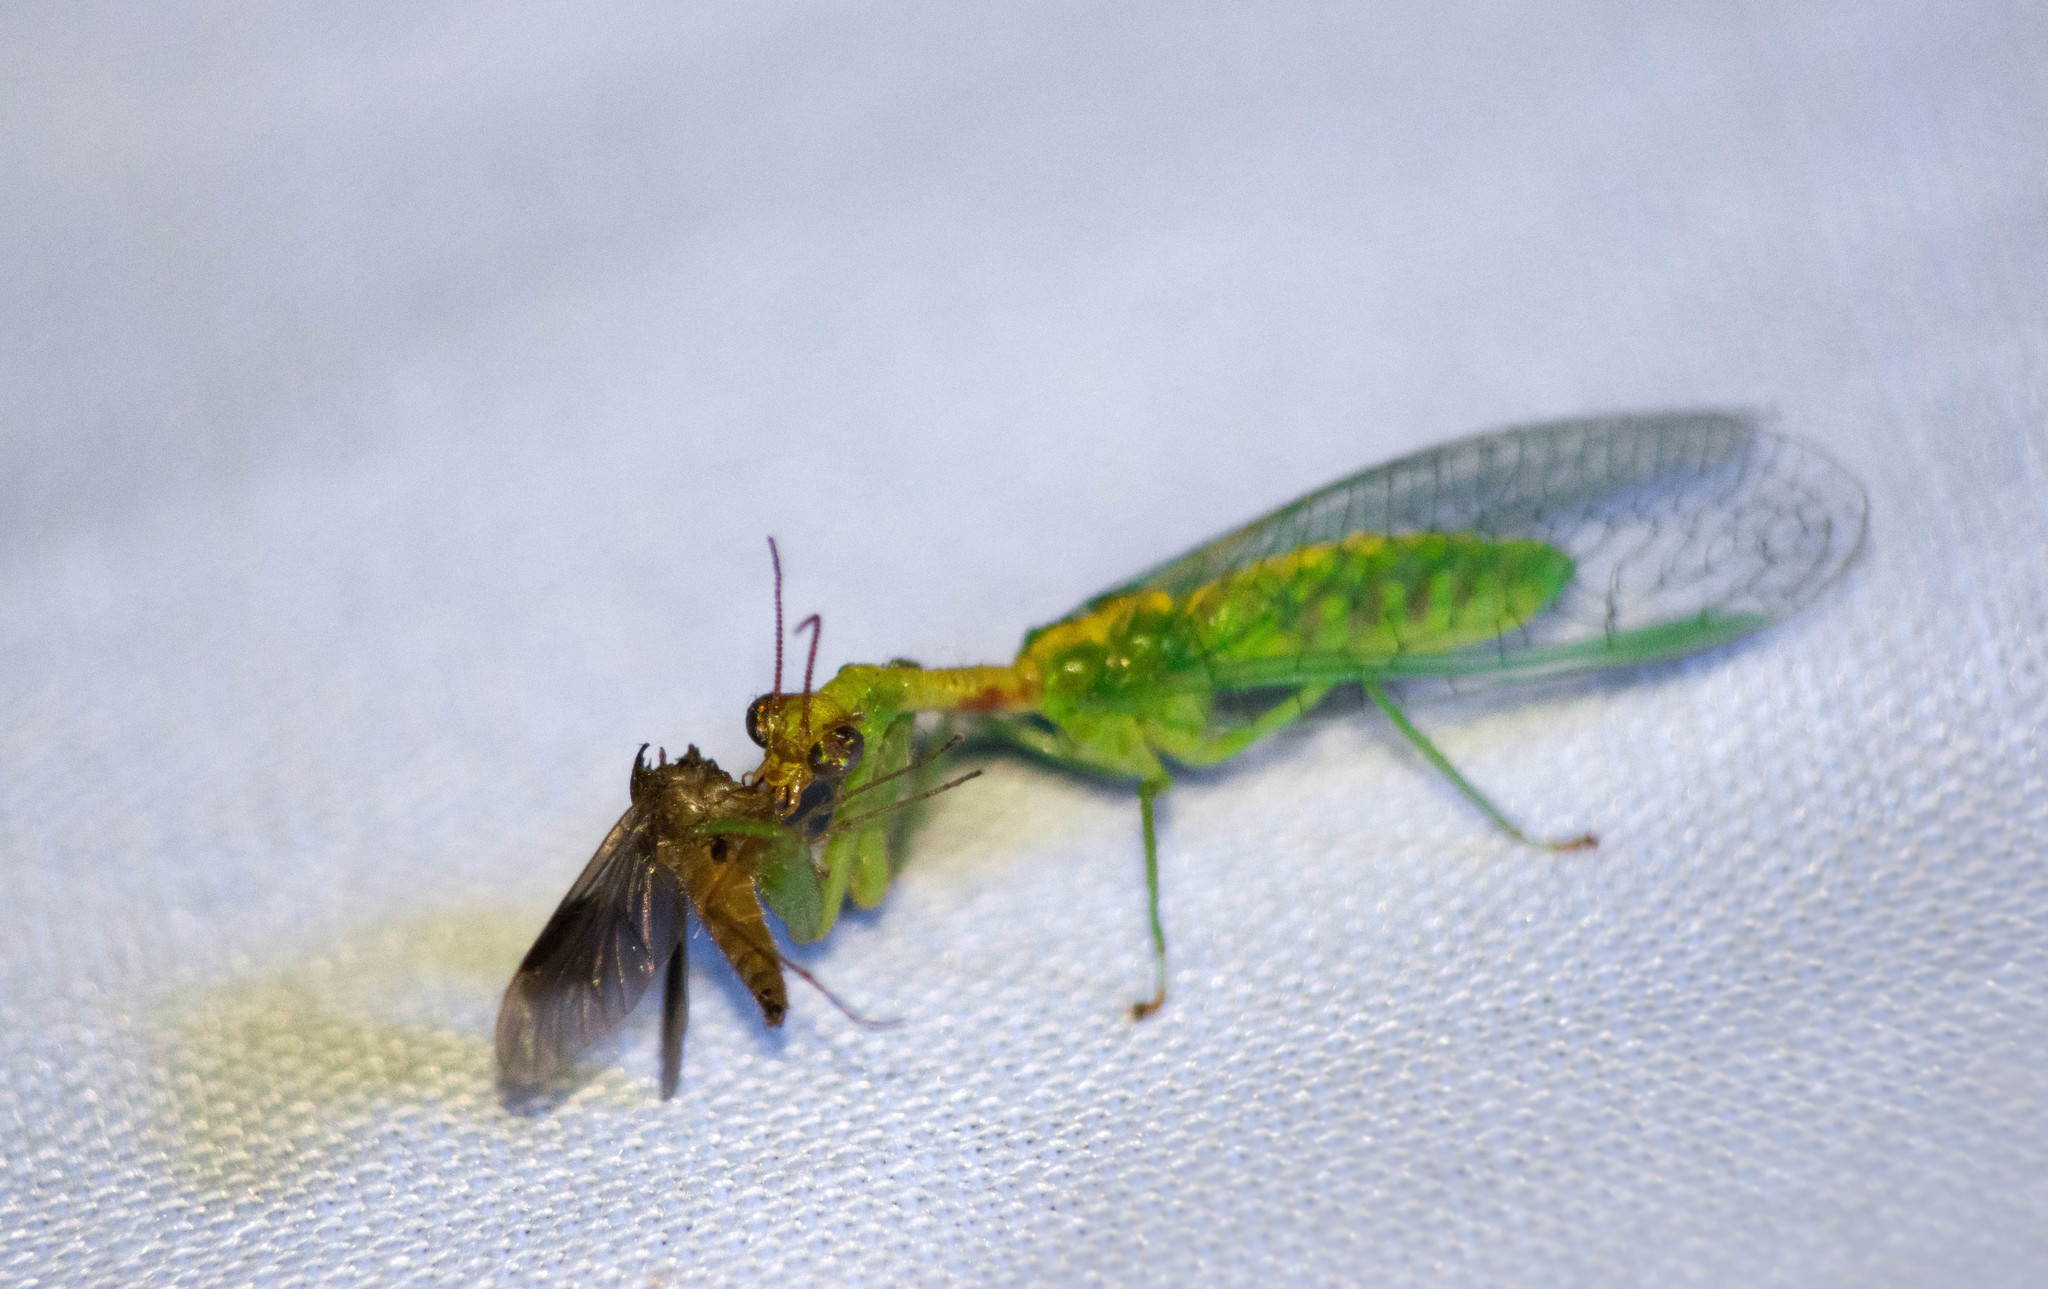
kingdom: Animalia
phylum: Arthropoda
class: Insecta
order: Neuroptera
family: Mantispidae
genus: Zeugomantispa
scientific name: Zeugomantispa minuta
